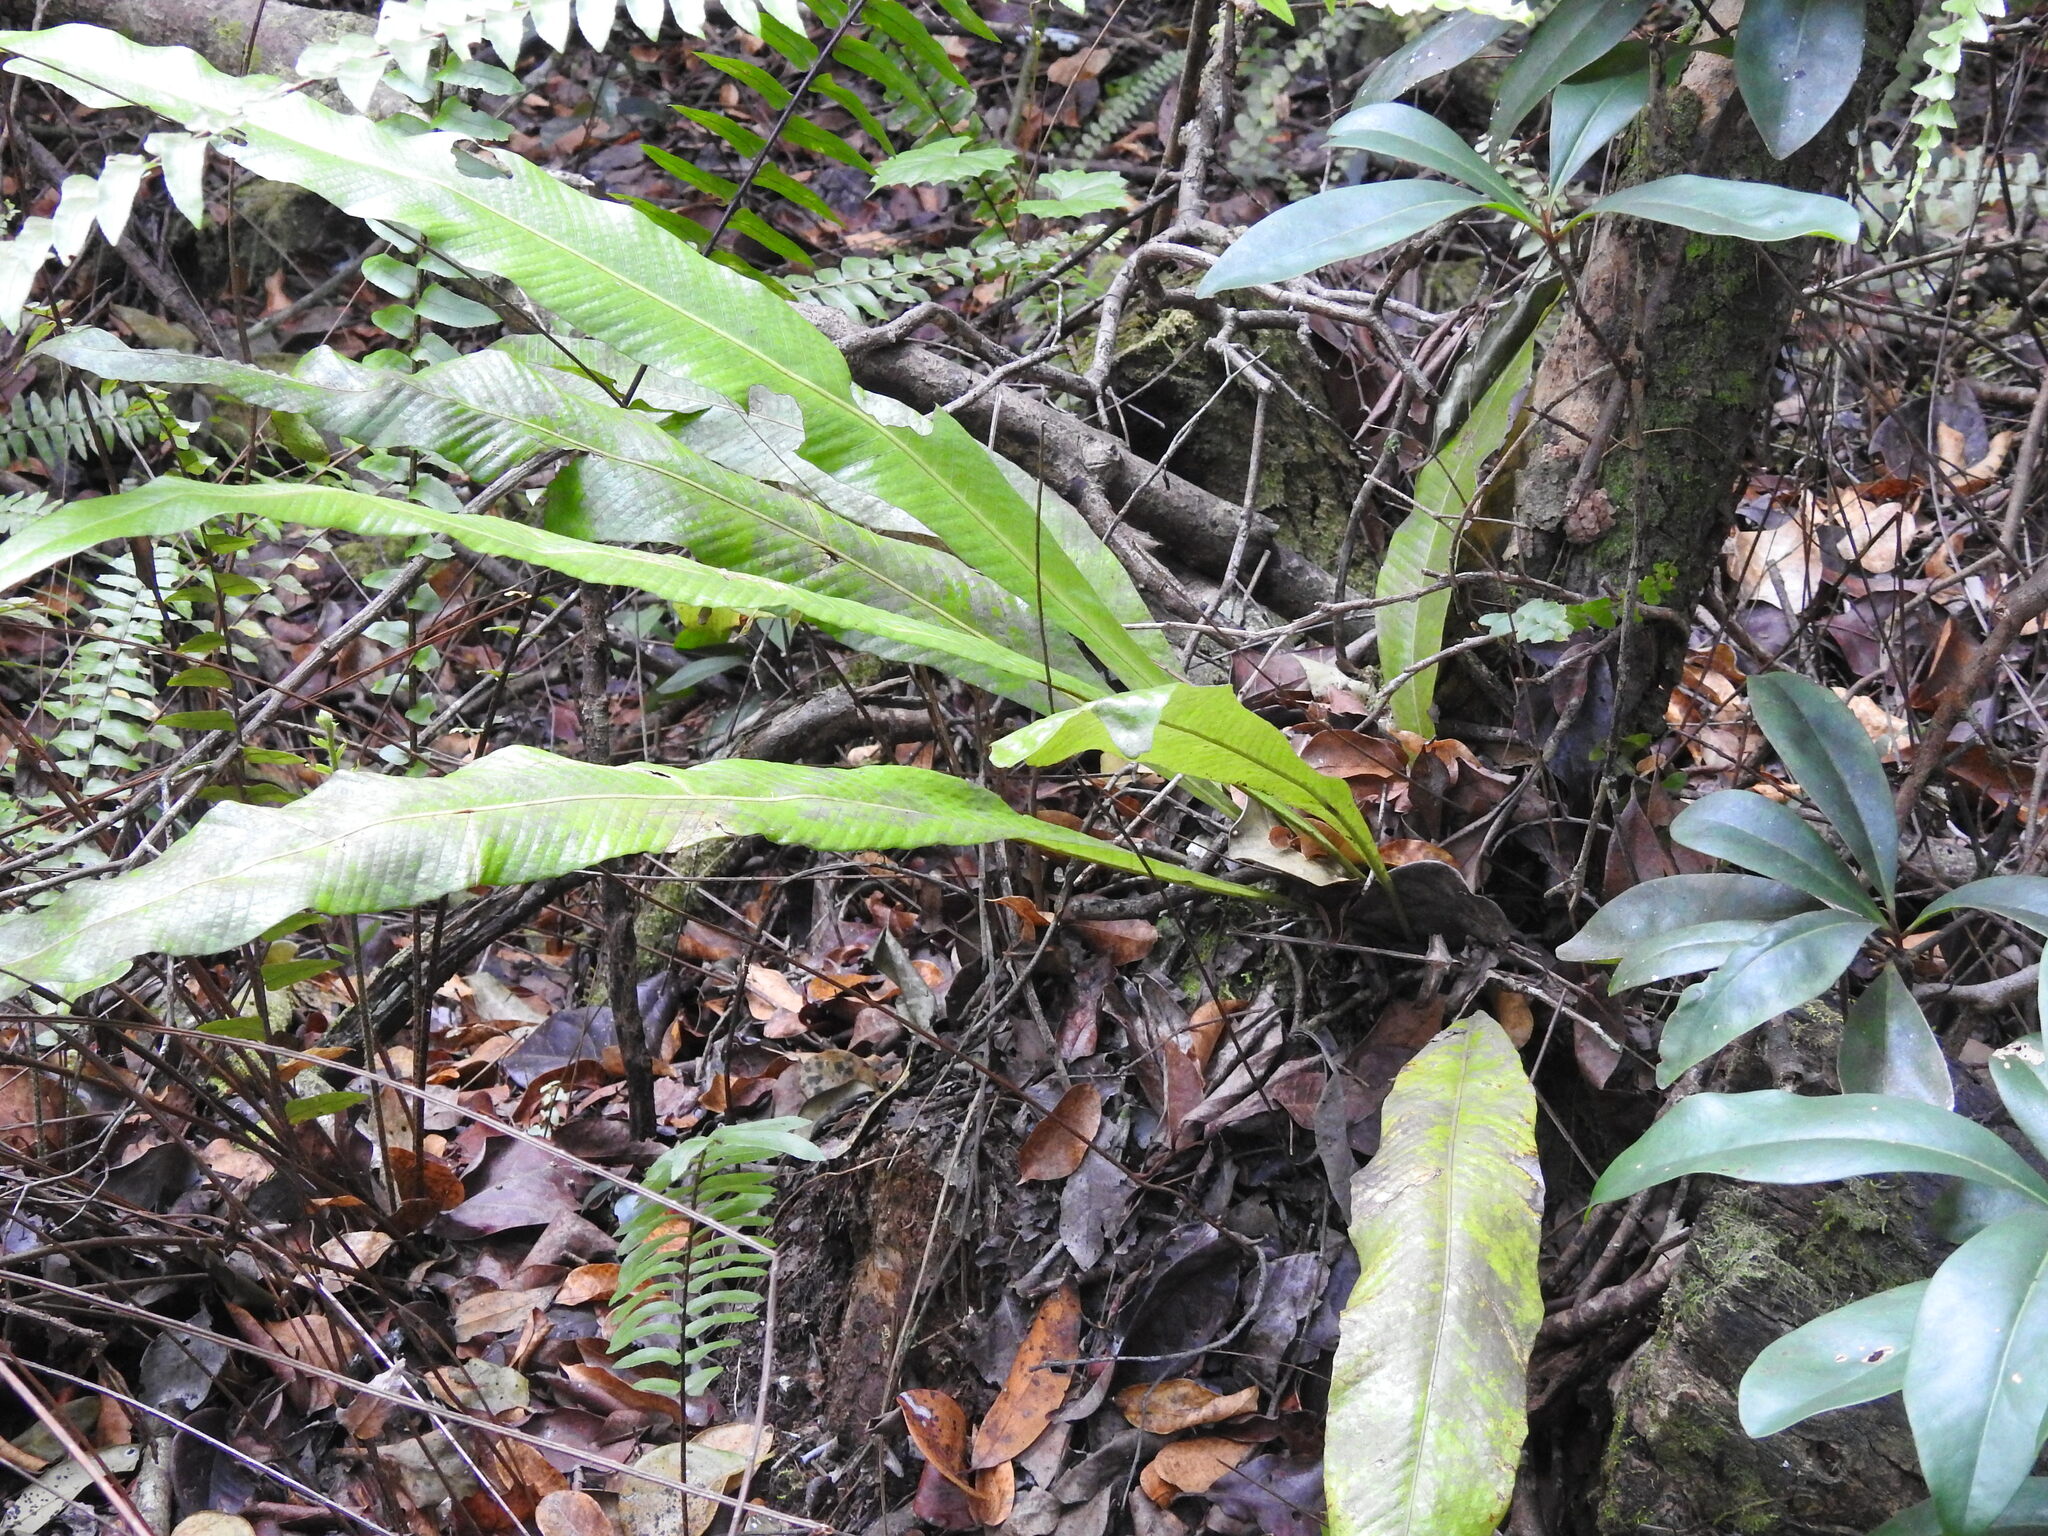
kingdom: Plantae
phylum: Tracheophyta
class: Polypodiopsida
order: Polypodiales
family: Polypodiaceae
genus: Campyloneurum
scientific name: Campyloneurum phyllitidis
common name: Cow-tongue fern
